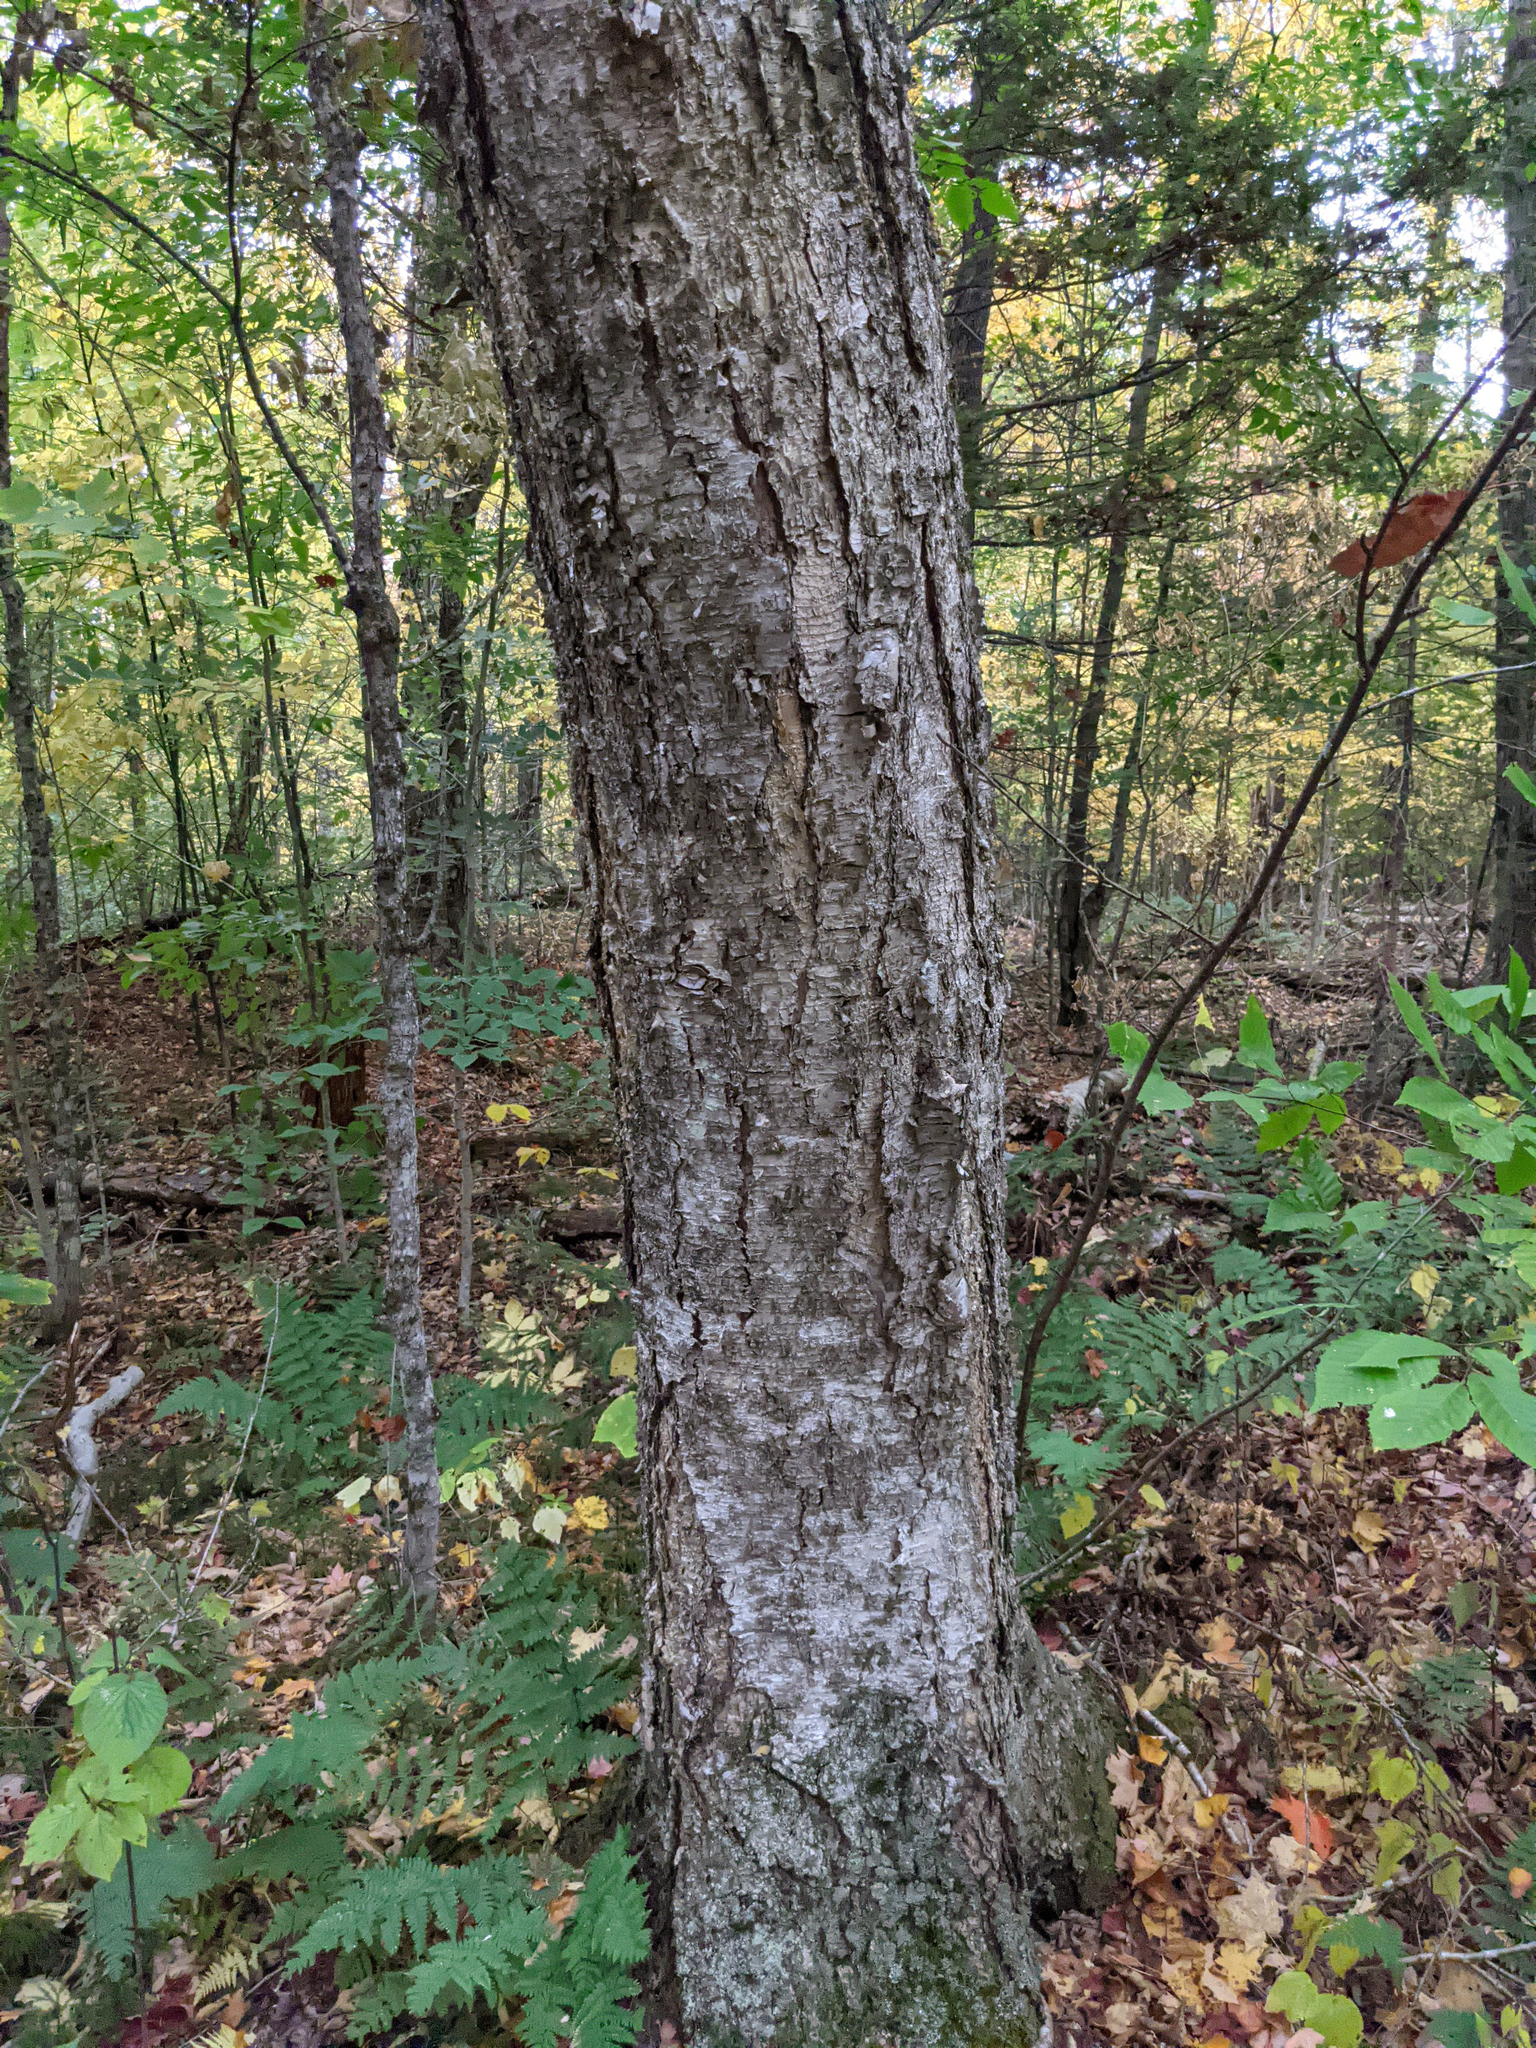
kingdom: Plantae
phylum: Tracheophyta
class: Magnoliopsida
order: Fagales
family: Betulaceae
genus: Betula
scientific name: Betula alleghaniensis
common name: Yellow birch
